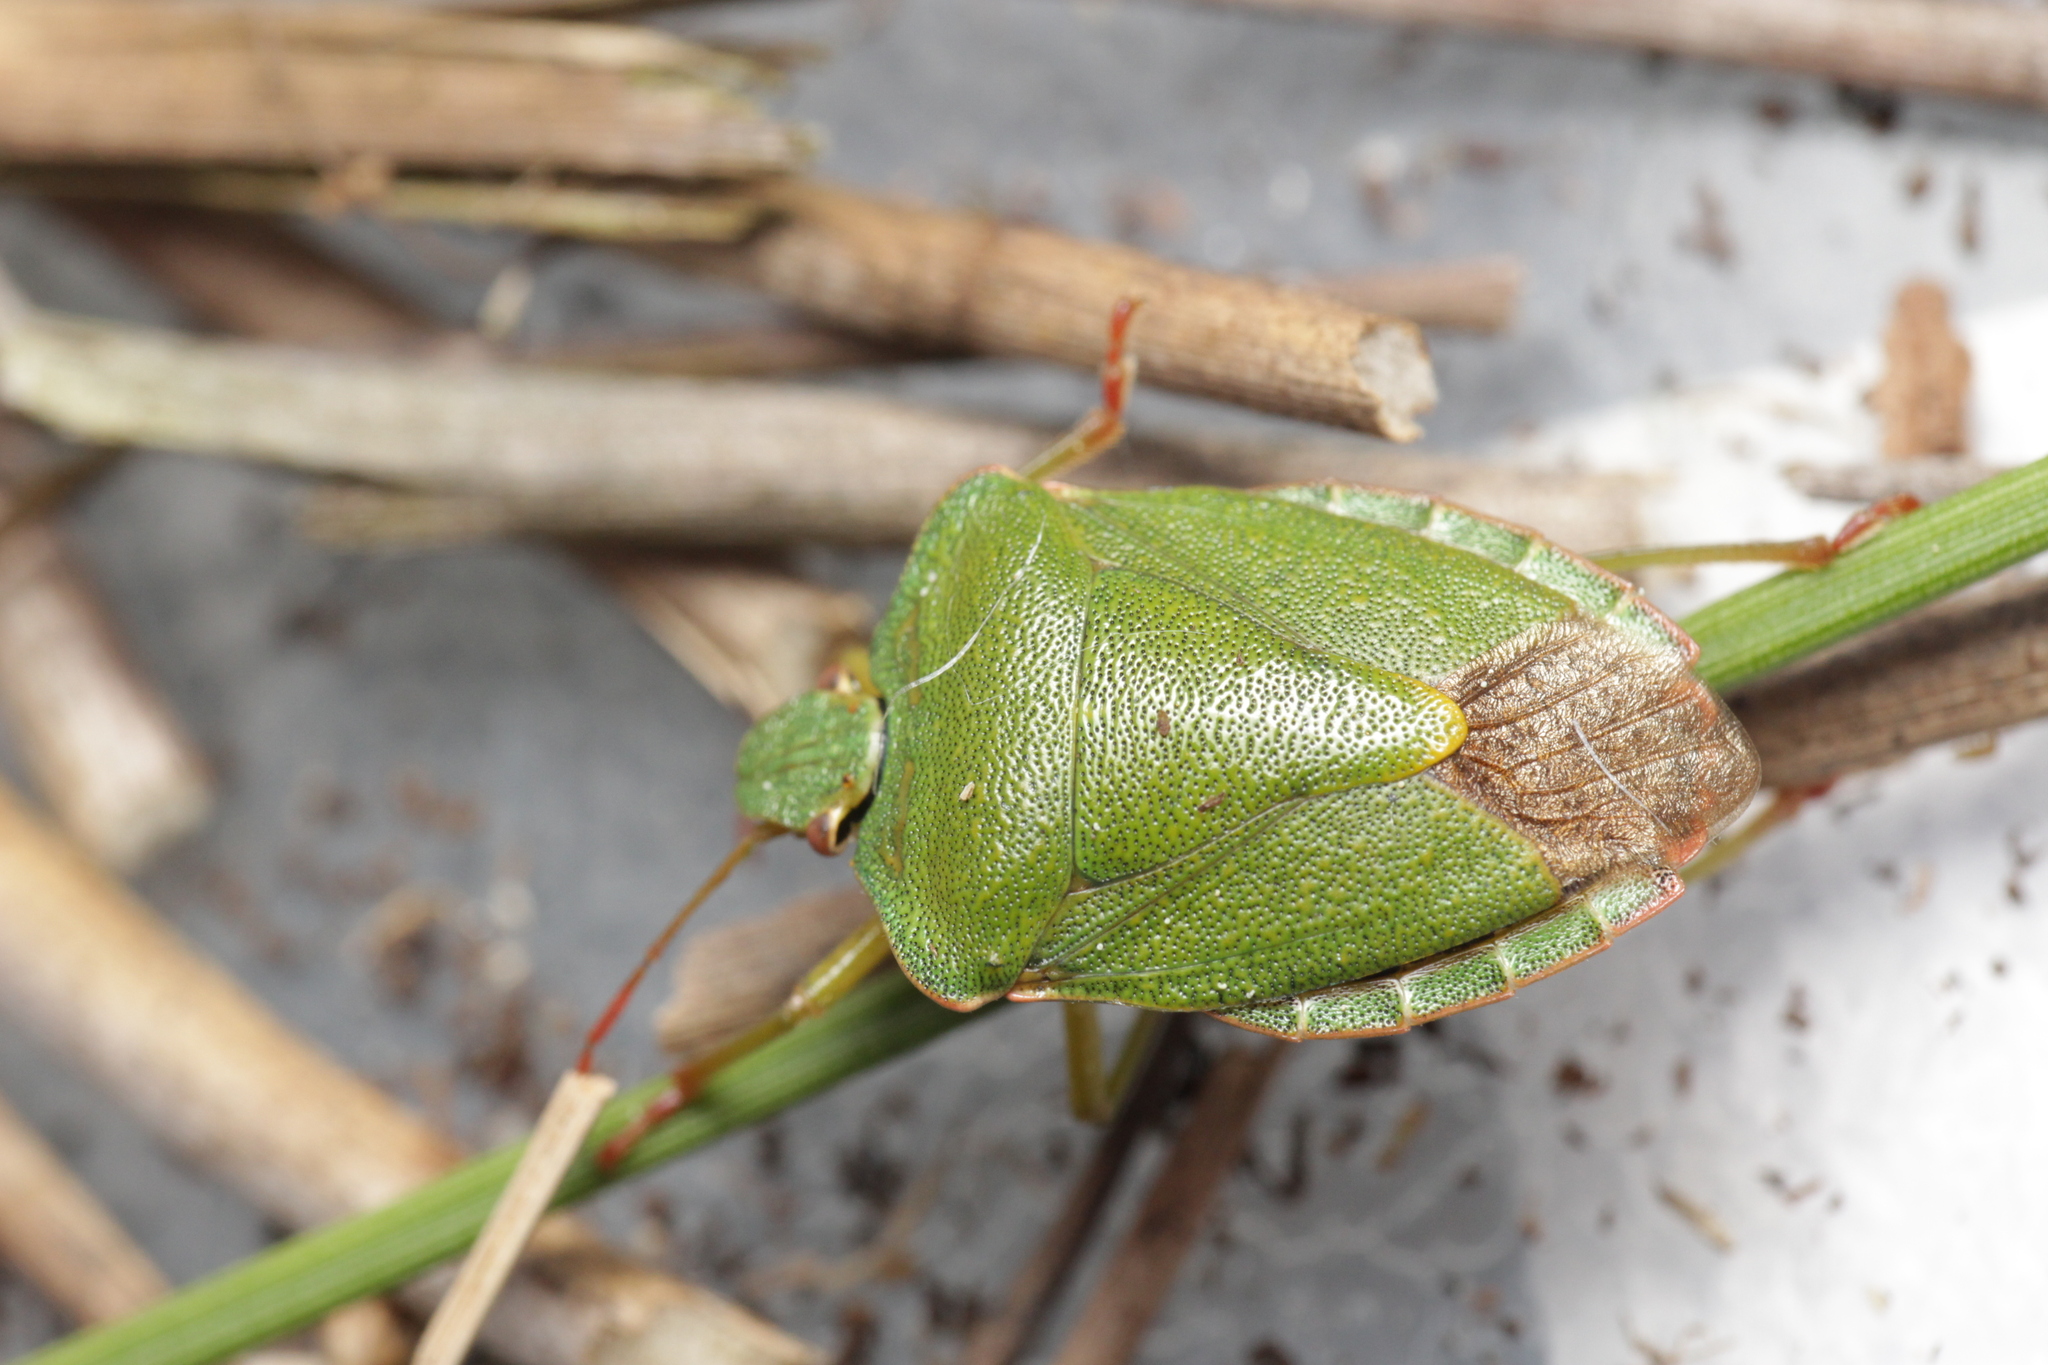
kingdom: Animalia
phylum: Arthropoda
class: Insecta
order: Hemiptera
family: Pentatomidae
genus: Palomena
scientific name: Palomena prasina
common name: Green shieldbug
